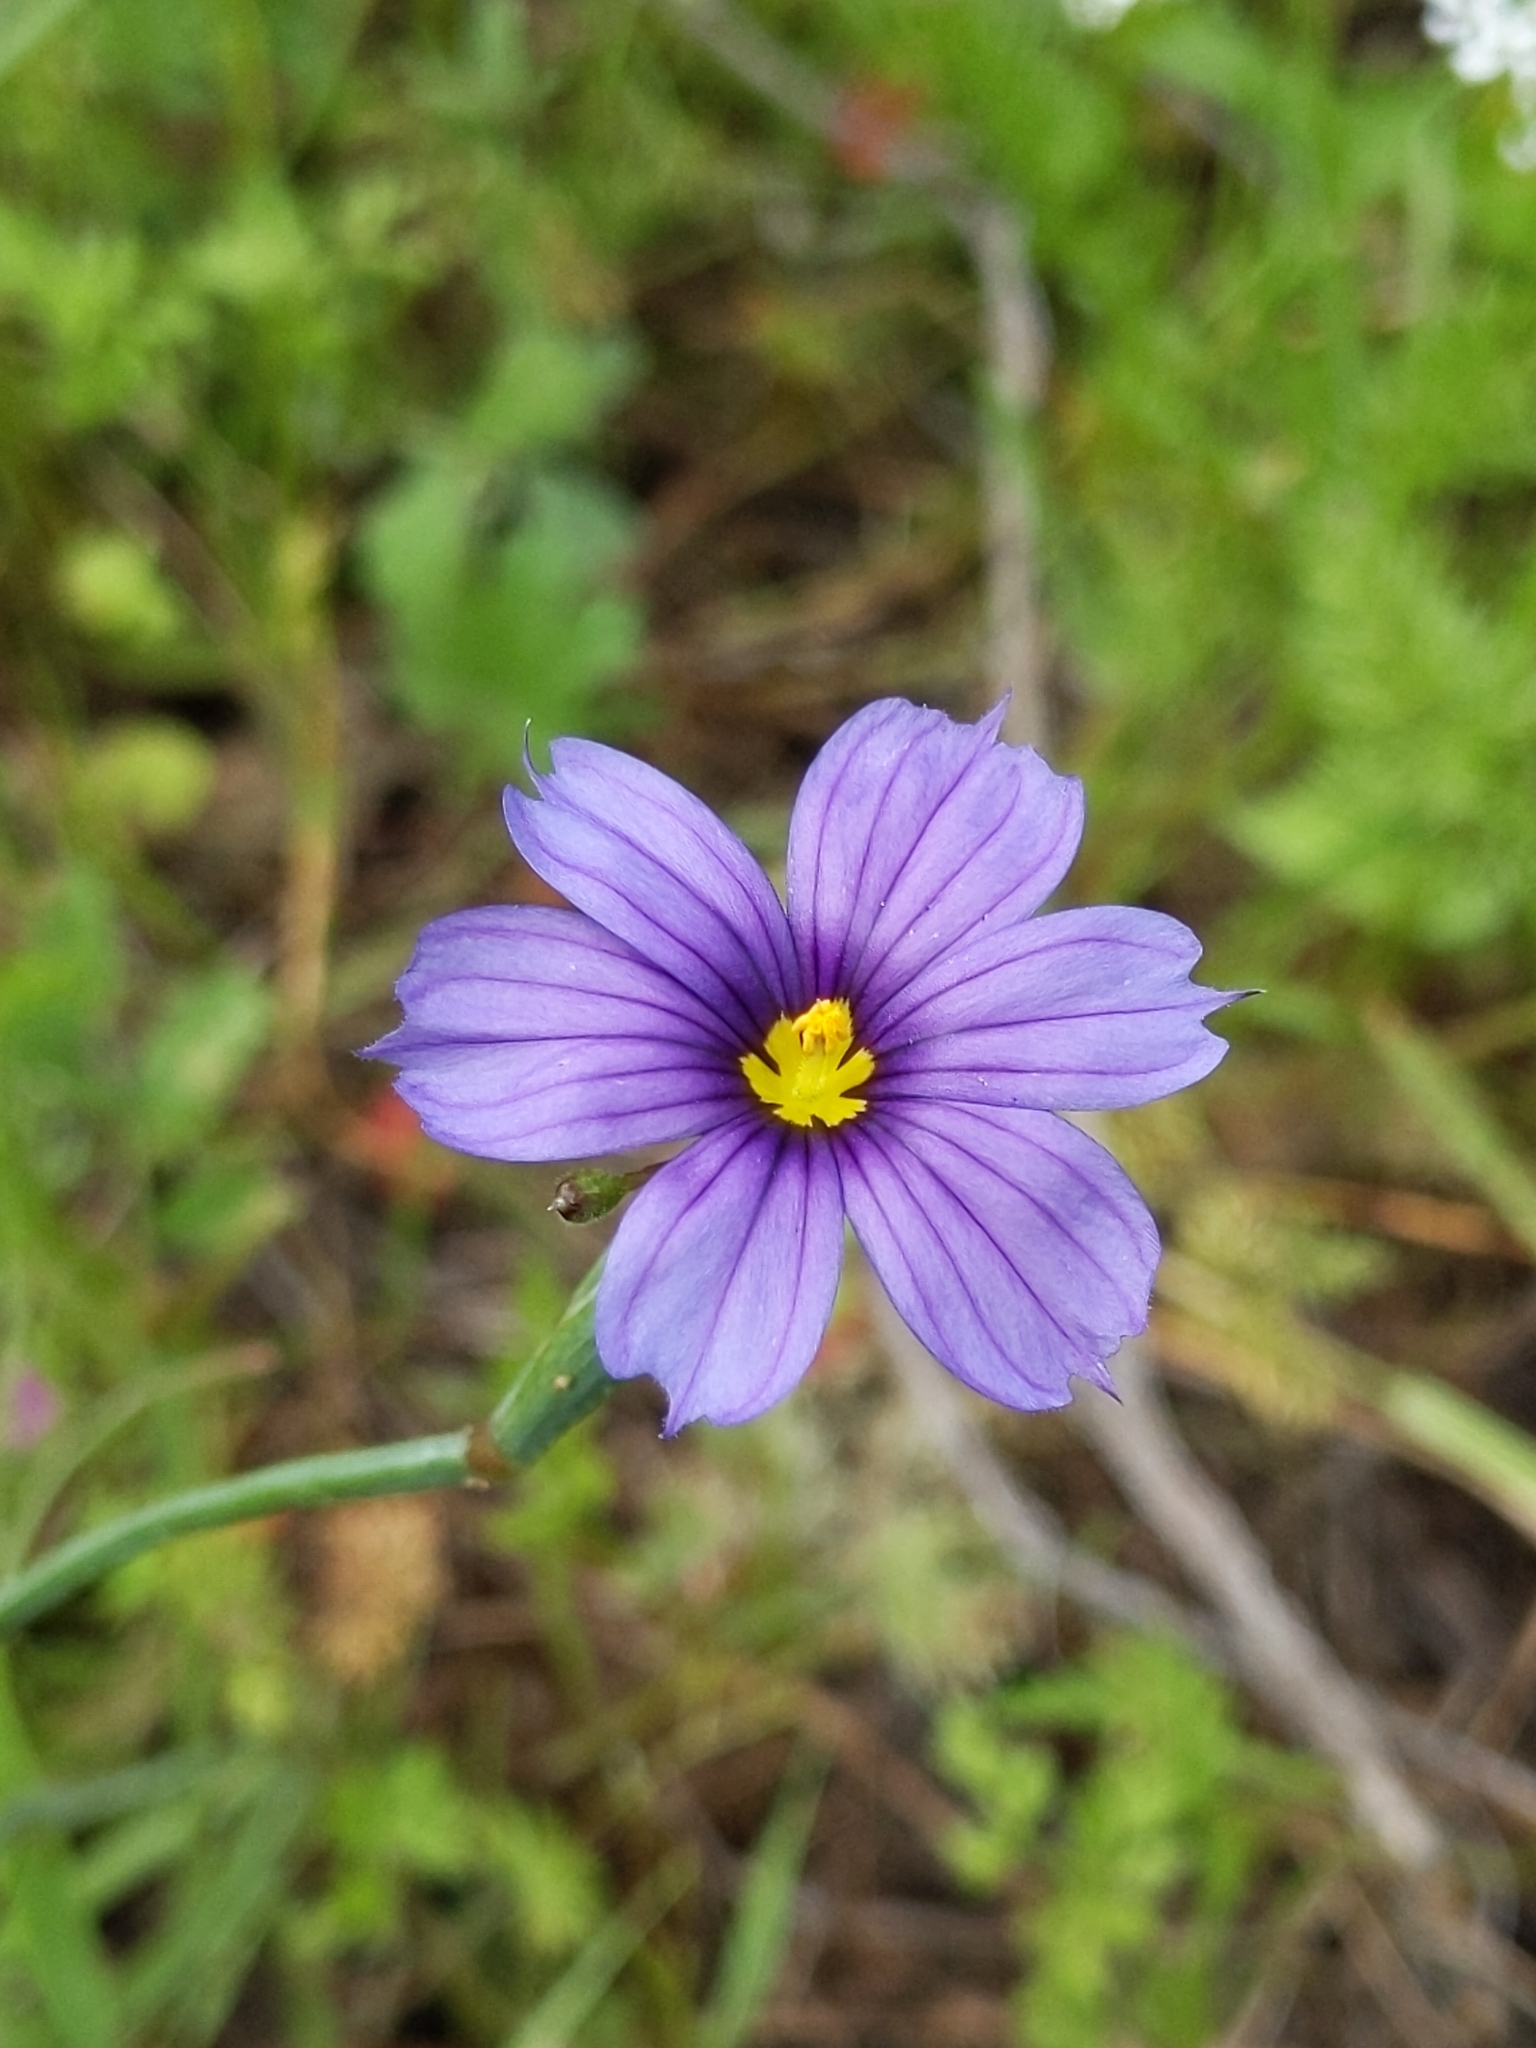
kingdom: Plantae
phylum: Tracheophyta
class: Liliopsida
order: Asparagales
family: Iridaceae
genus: Sisyrinchium
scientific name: Sisyrinchium bellum
